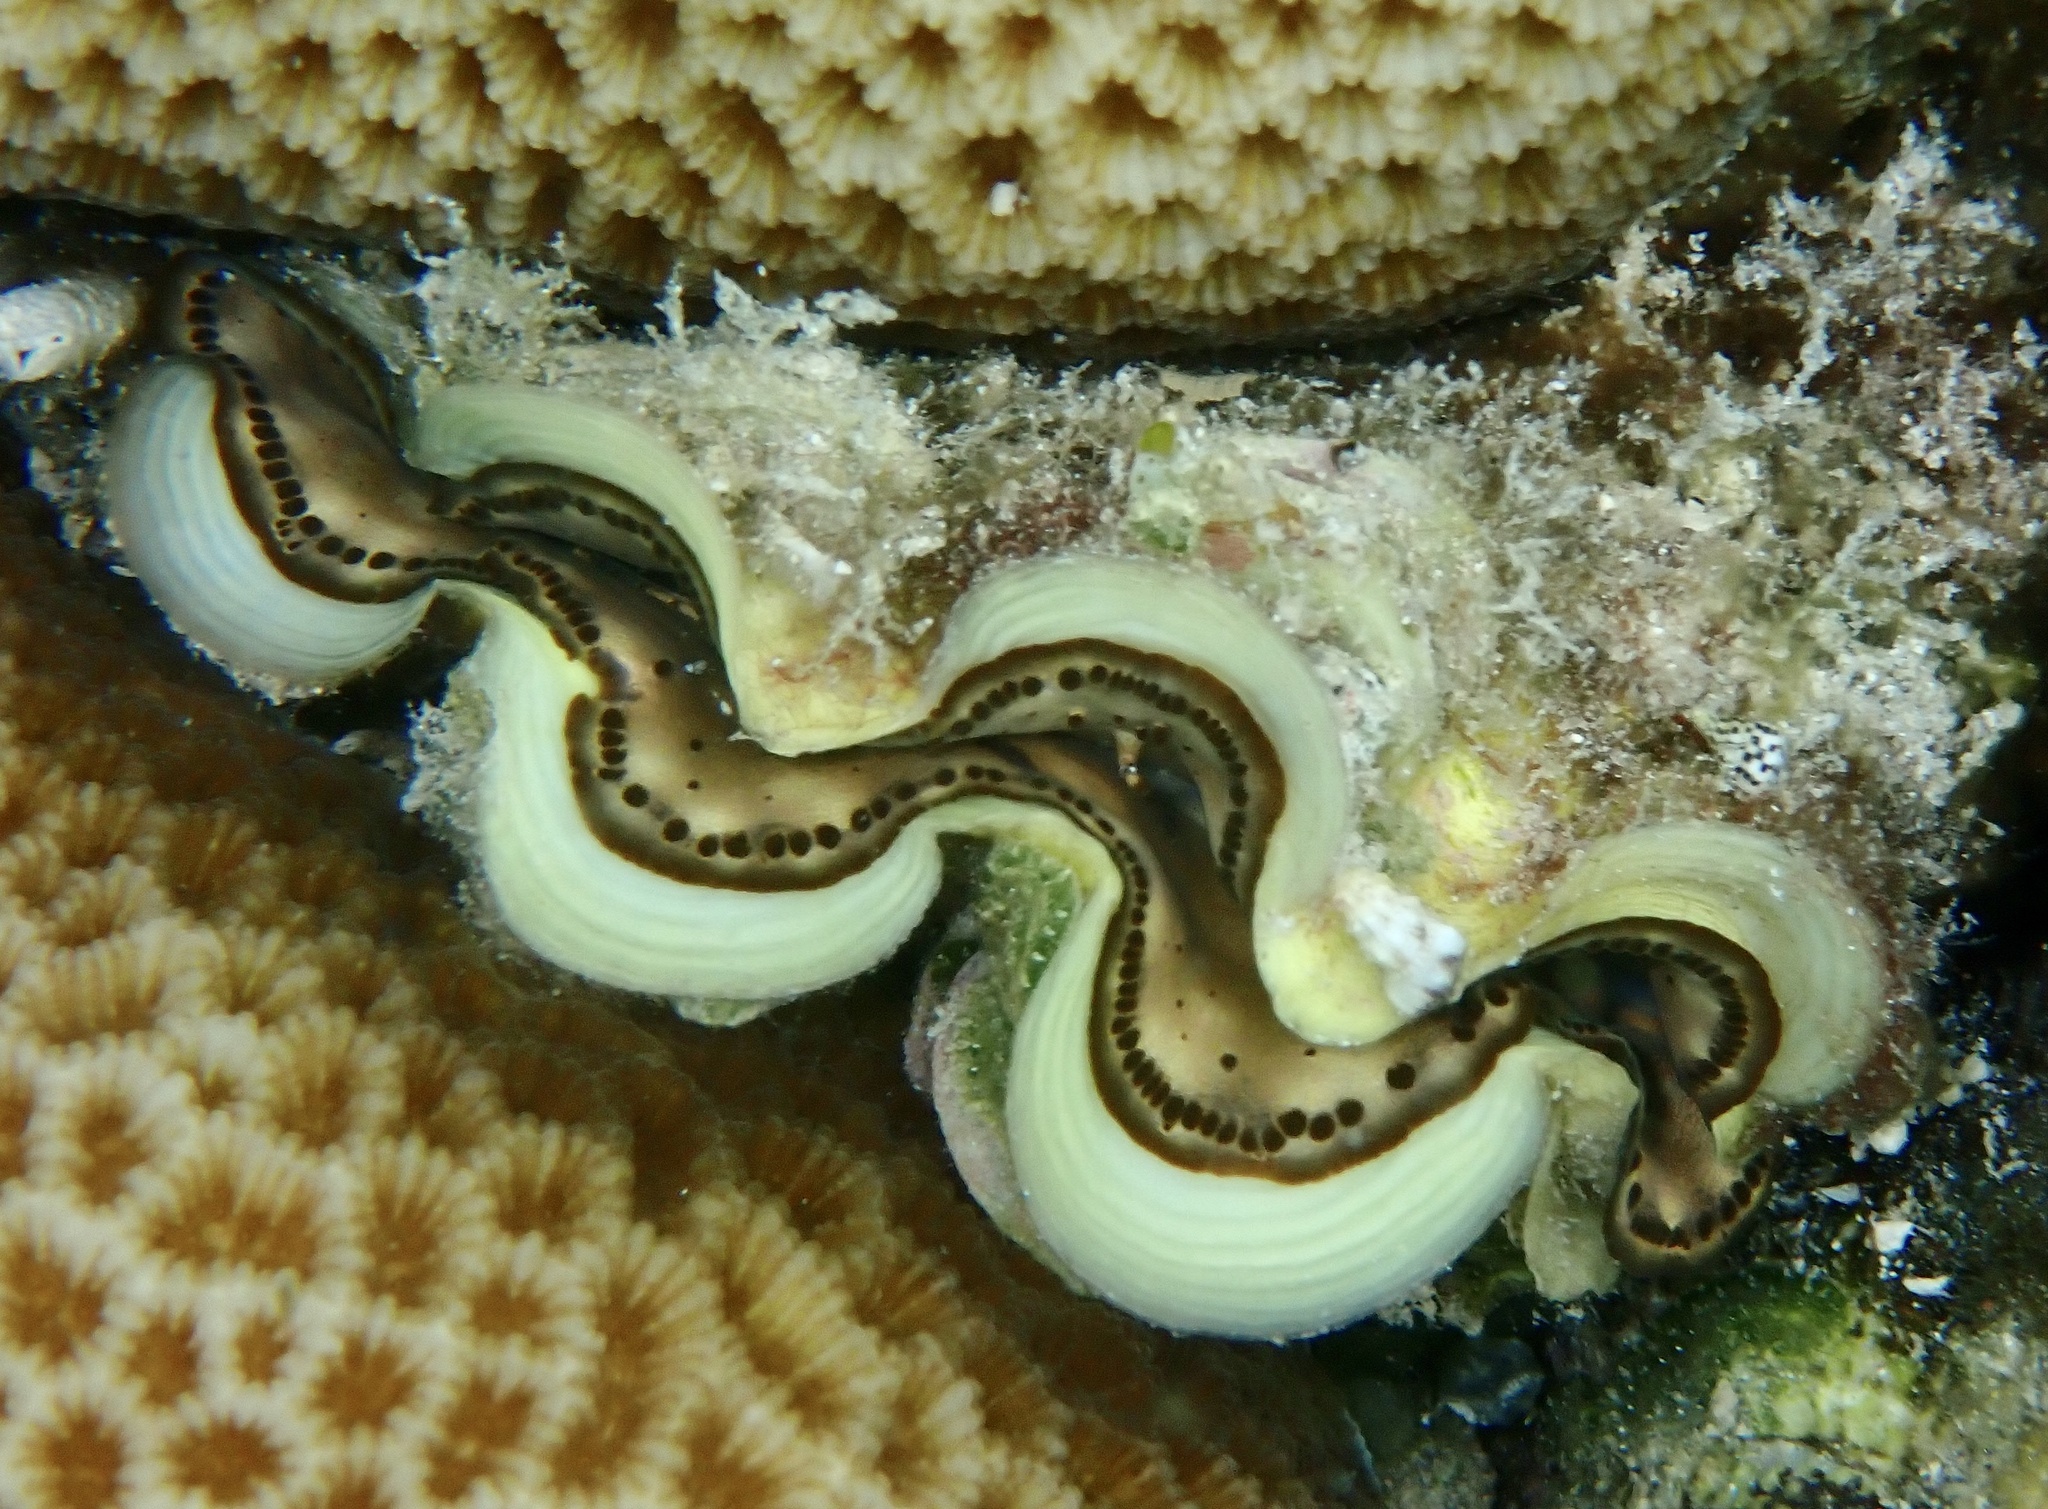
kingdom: Animalia
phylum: Mollusca
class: Bivalvia
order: Cardiida
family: Cardiidae
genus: Tridacna
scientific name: Tridacna maxima
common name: Small giant clam
